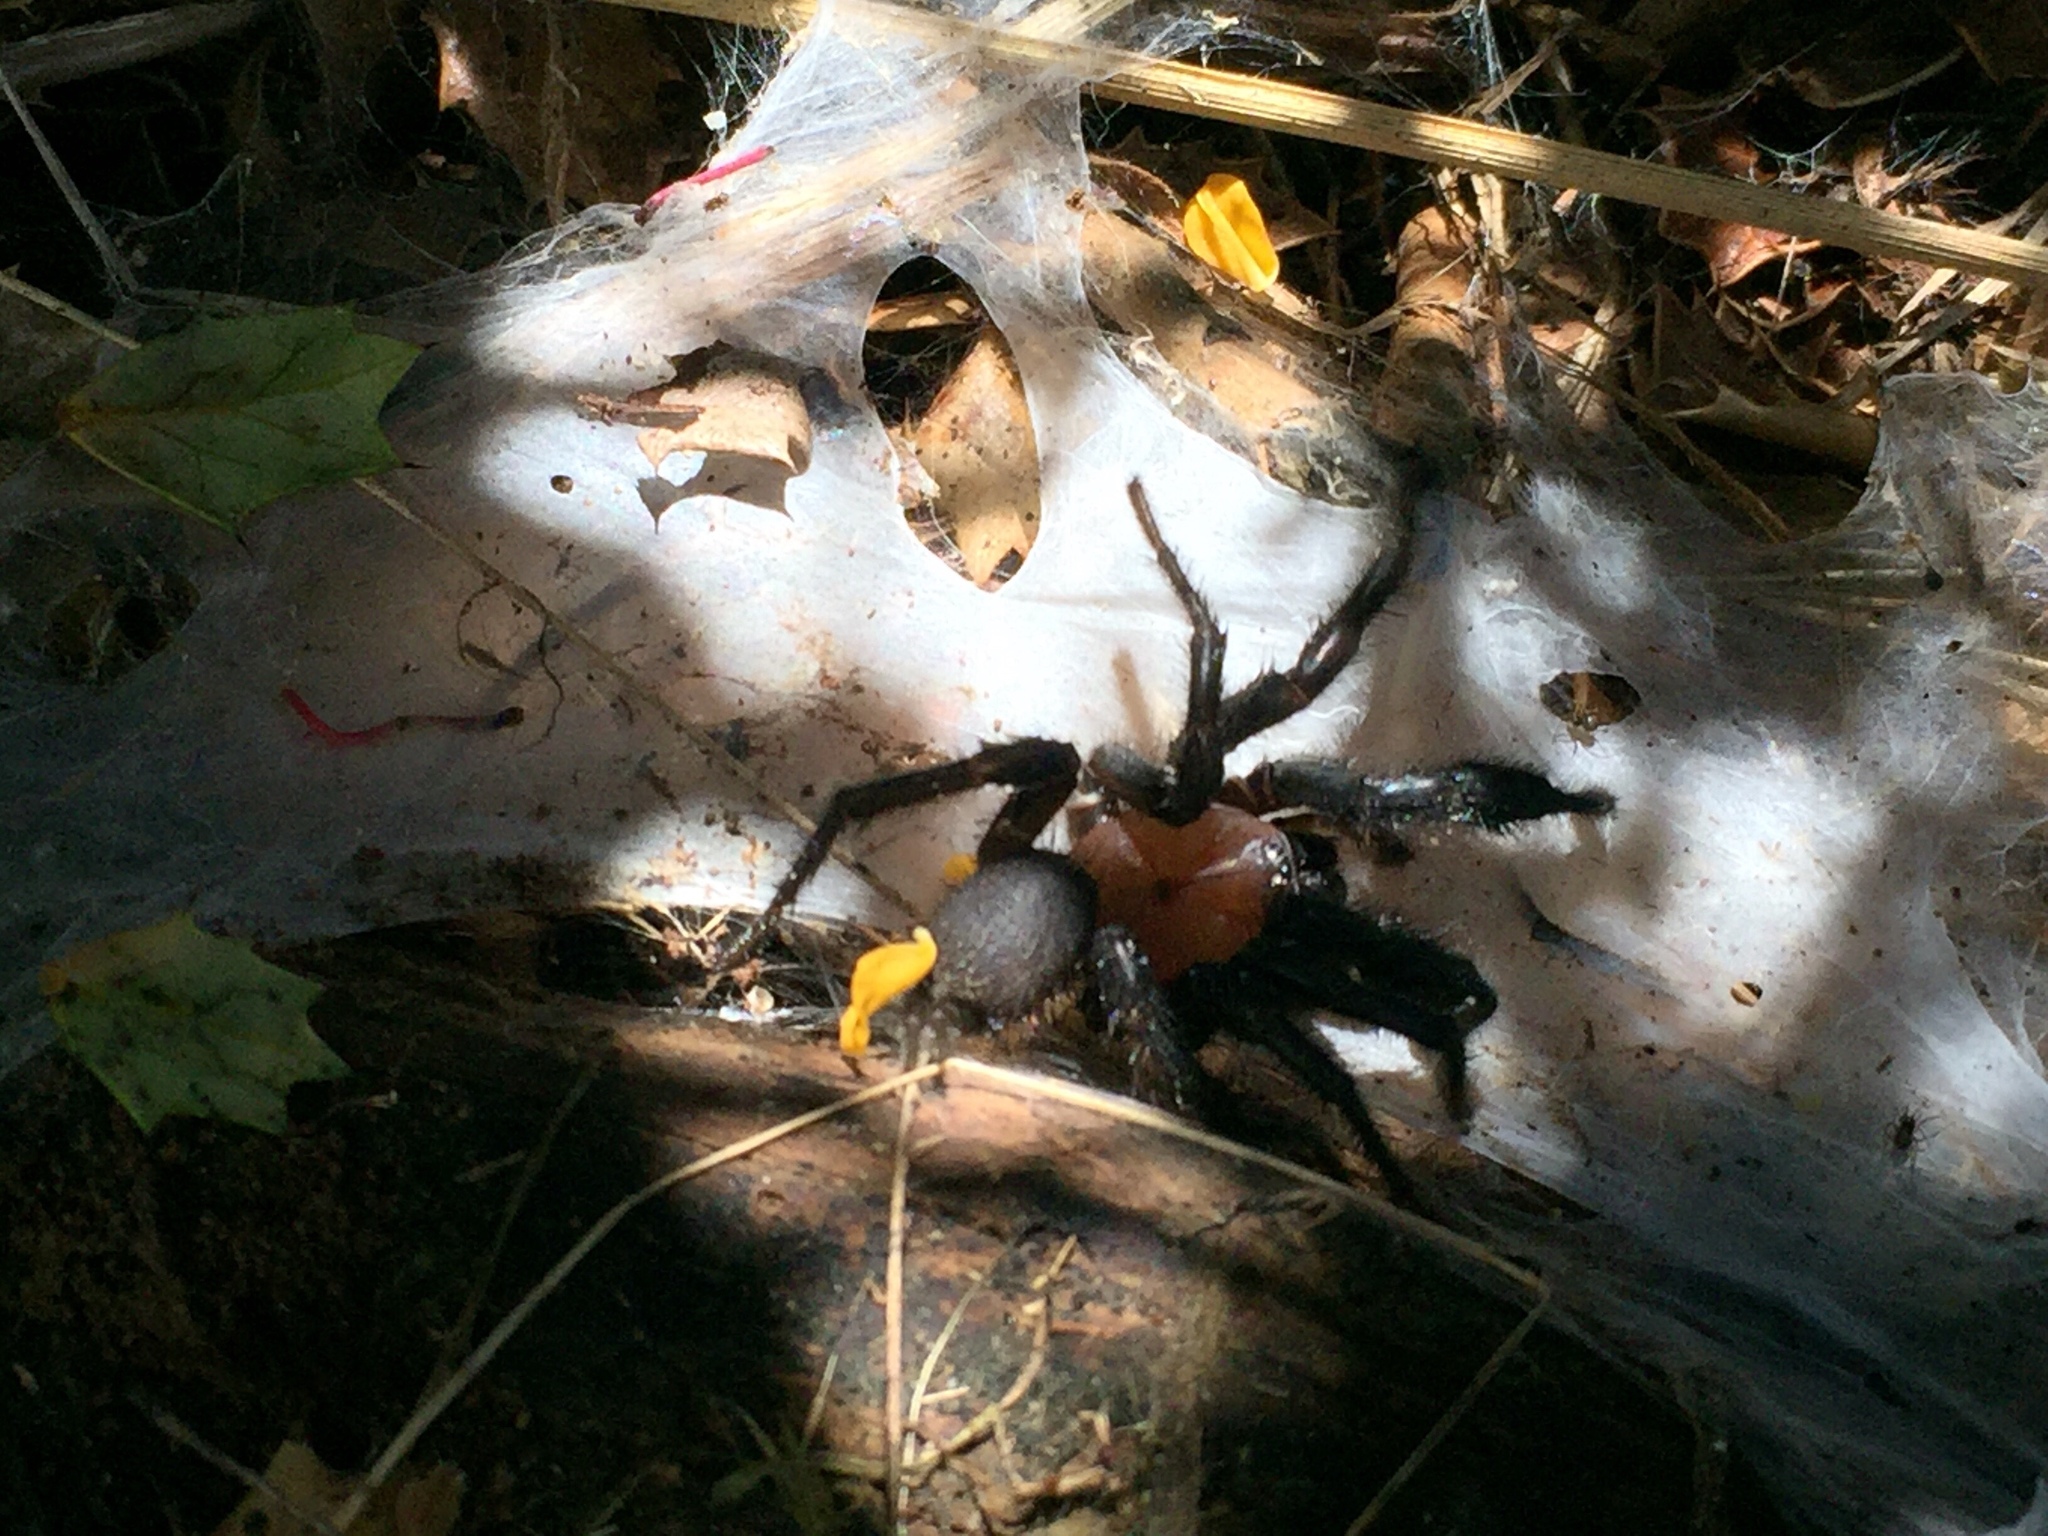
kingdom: Animalia
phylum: Arthropoda
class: Arachnida
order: Araneae
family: Porrhothelidae
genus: Porrhothele
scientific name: Porrhothele antipodiana
